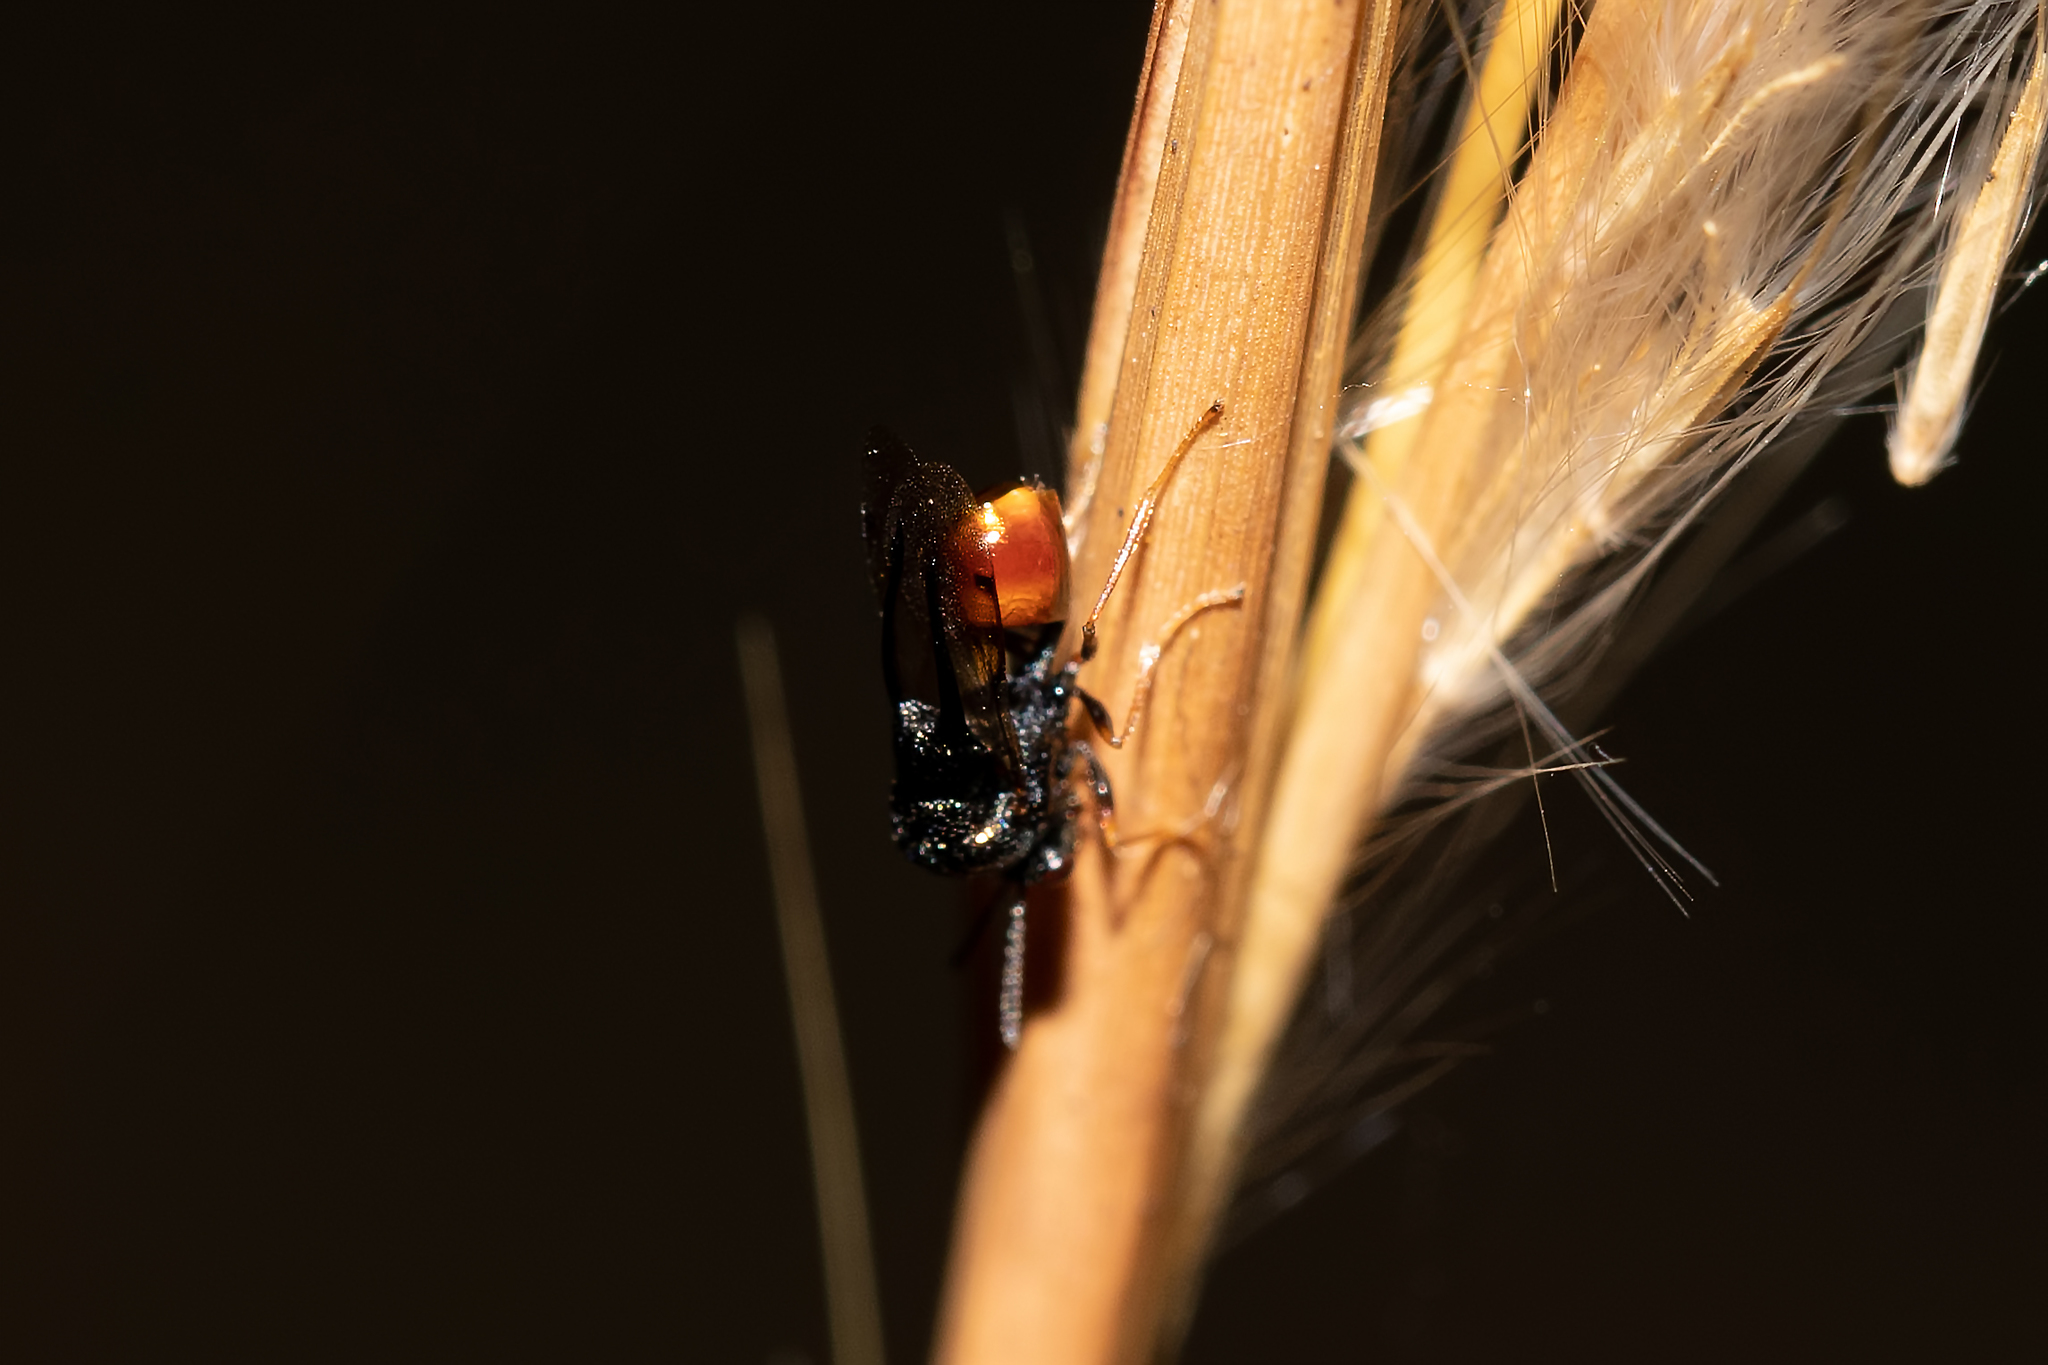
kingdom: Animalia
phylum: Arthropoda
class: Insecta
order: Hymenoptera
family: Eucharitidae
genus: Kapala
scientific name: Kapala floridana
